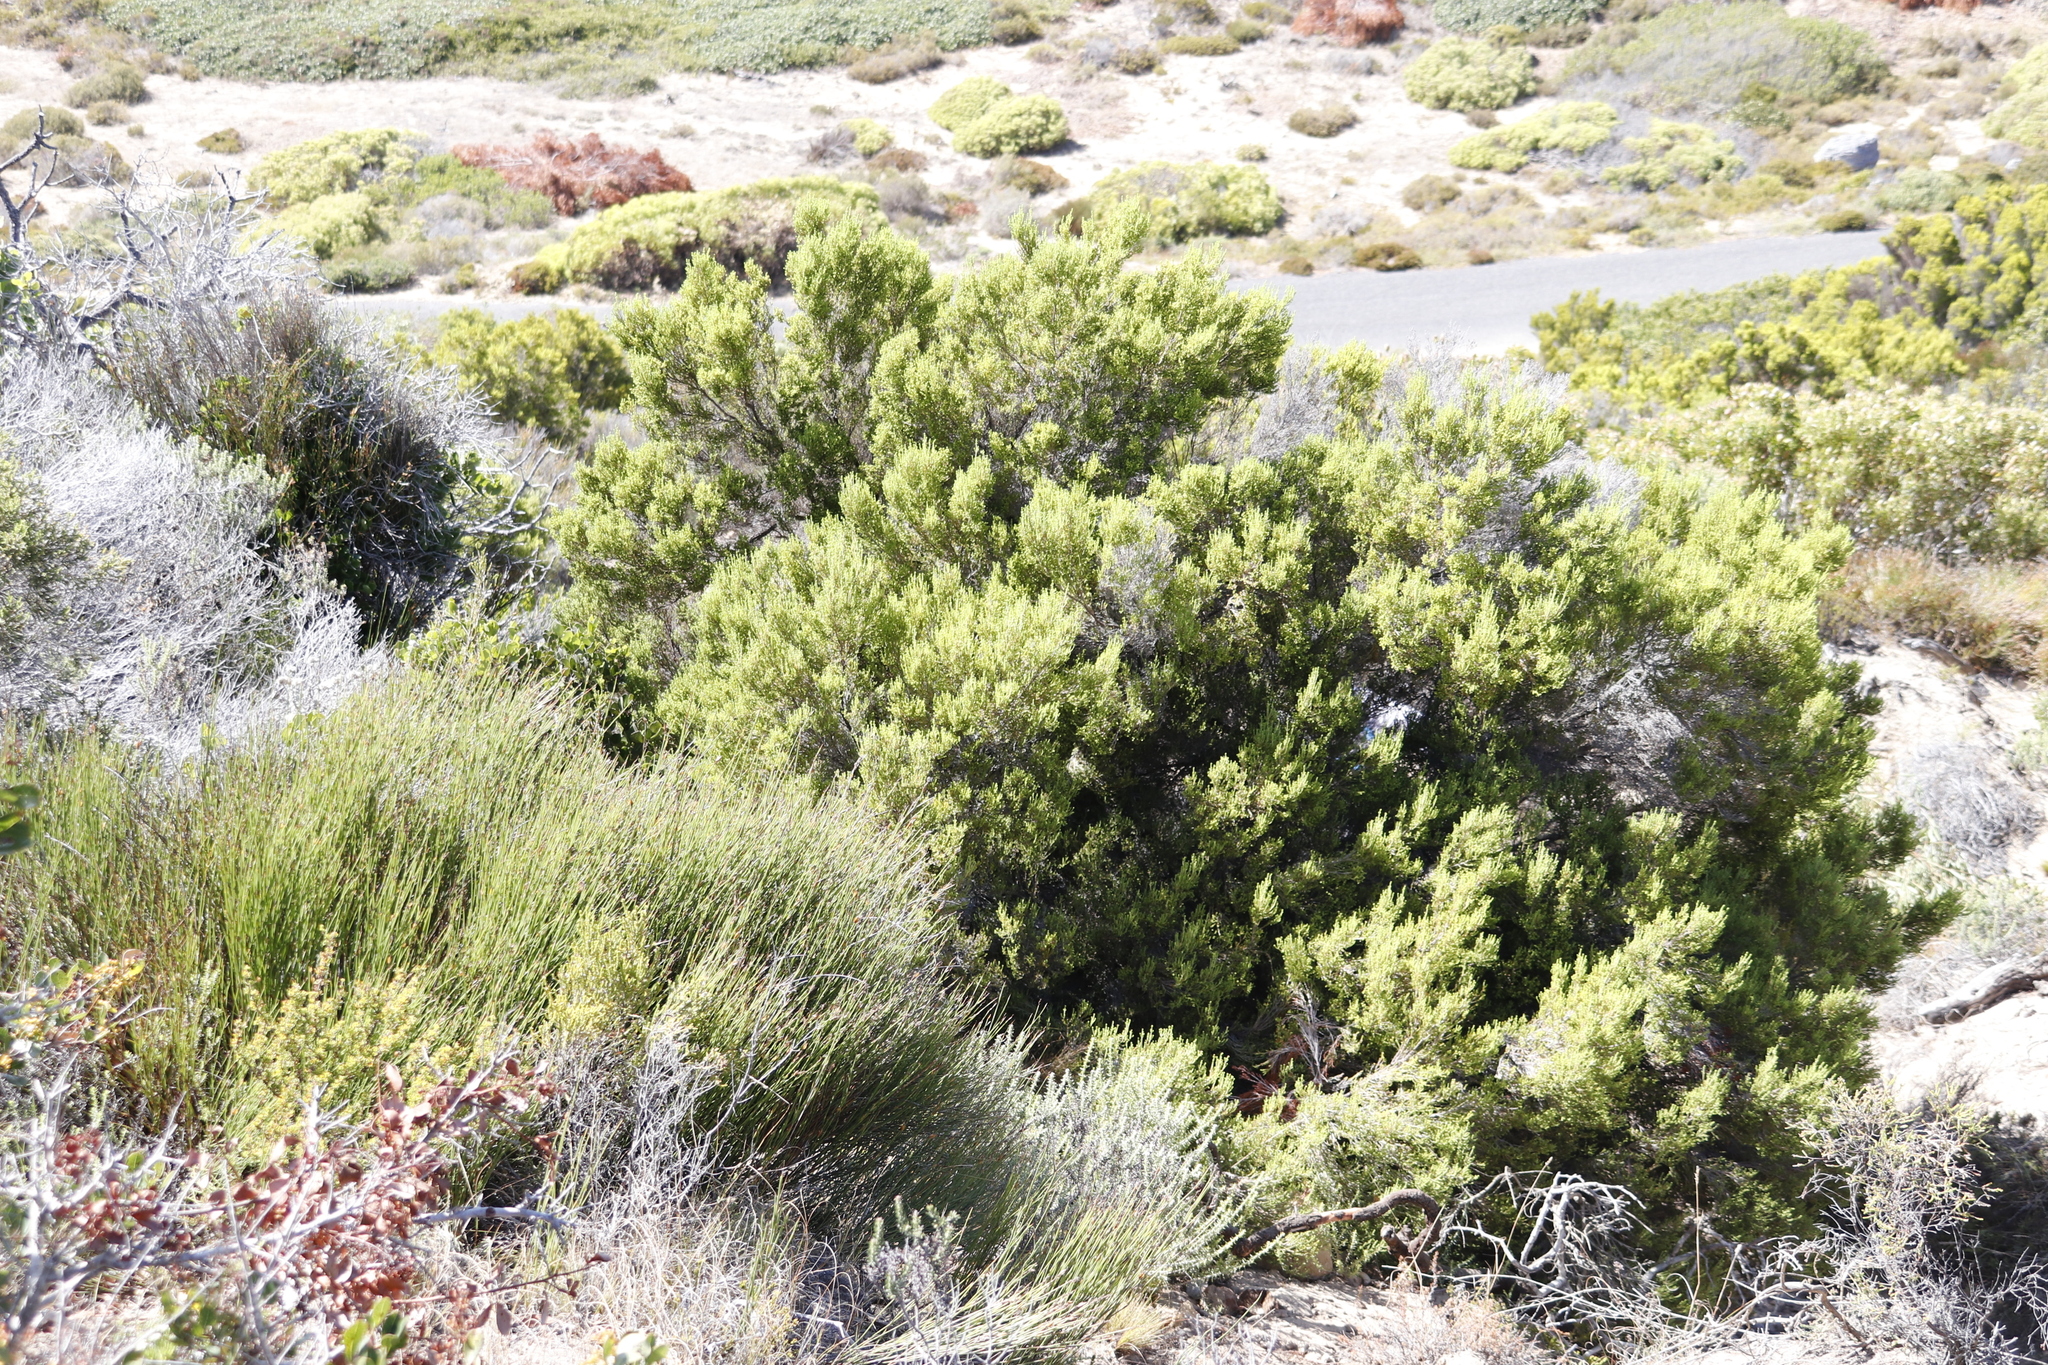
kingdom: Plantae
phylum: Tracheophyta
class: Magnoliopsida
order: Ericales
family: Ericaceae
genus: Erica
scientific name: Erica tristis
